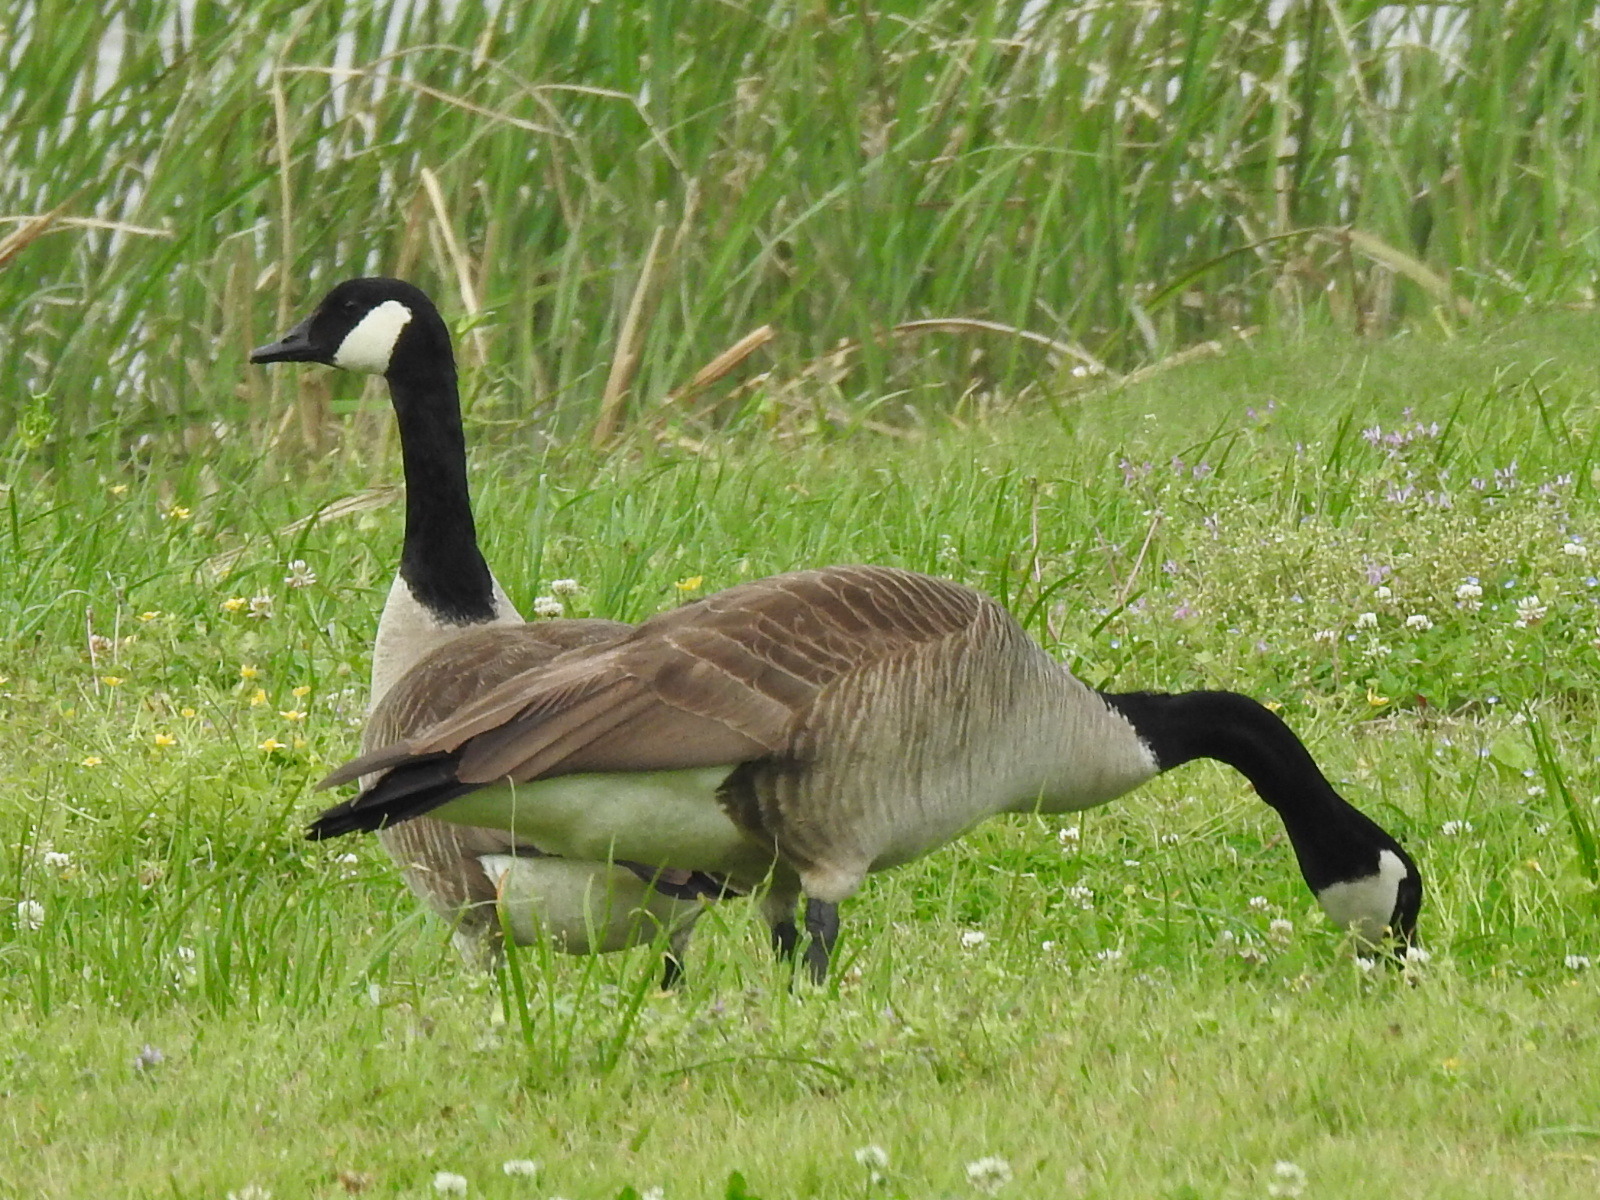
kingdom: Animalia
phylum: Chordata
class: Aves
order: Anseriformes
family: Anatidae
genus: Branta
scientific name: Branta canadensis
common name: Canada goose
